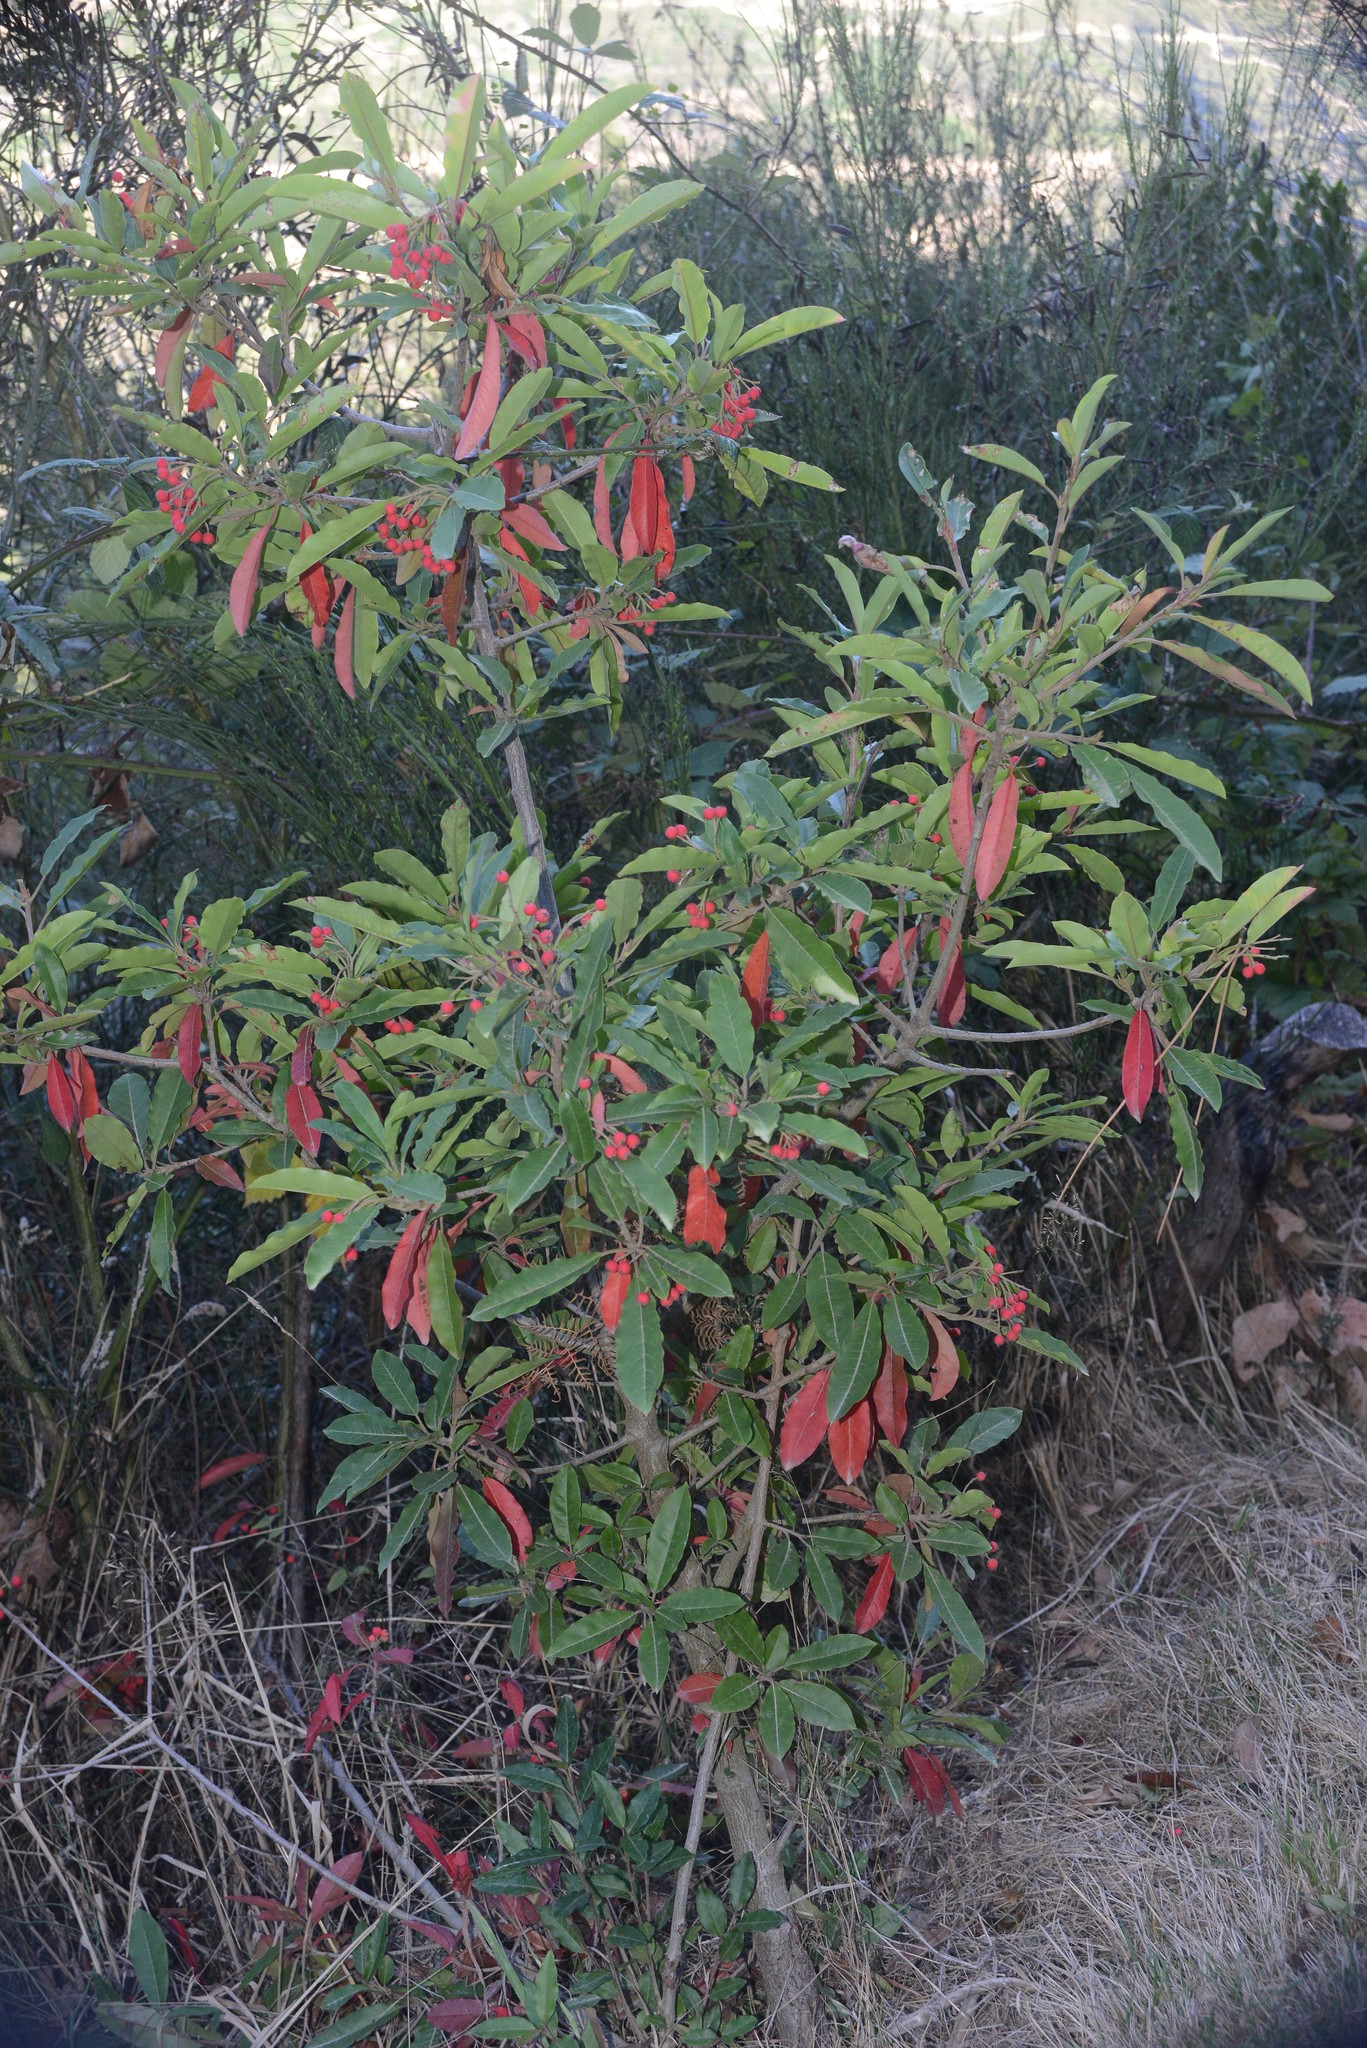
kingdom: Plantae
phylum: Tracheophyta
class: Magnoliopsida
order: Rosales
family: Rosaceae
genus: Stranvaesia
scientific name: Stranvaesia davidiana
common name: Chinese photinia
